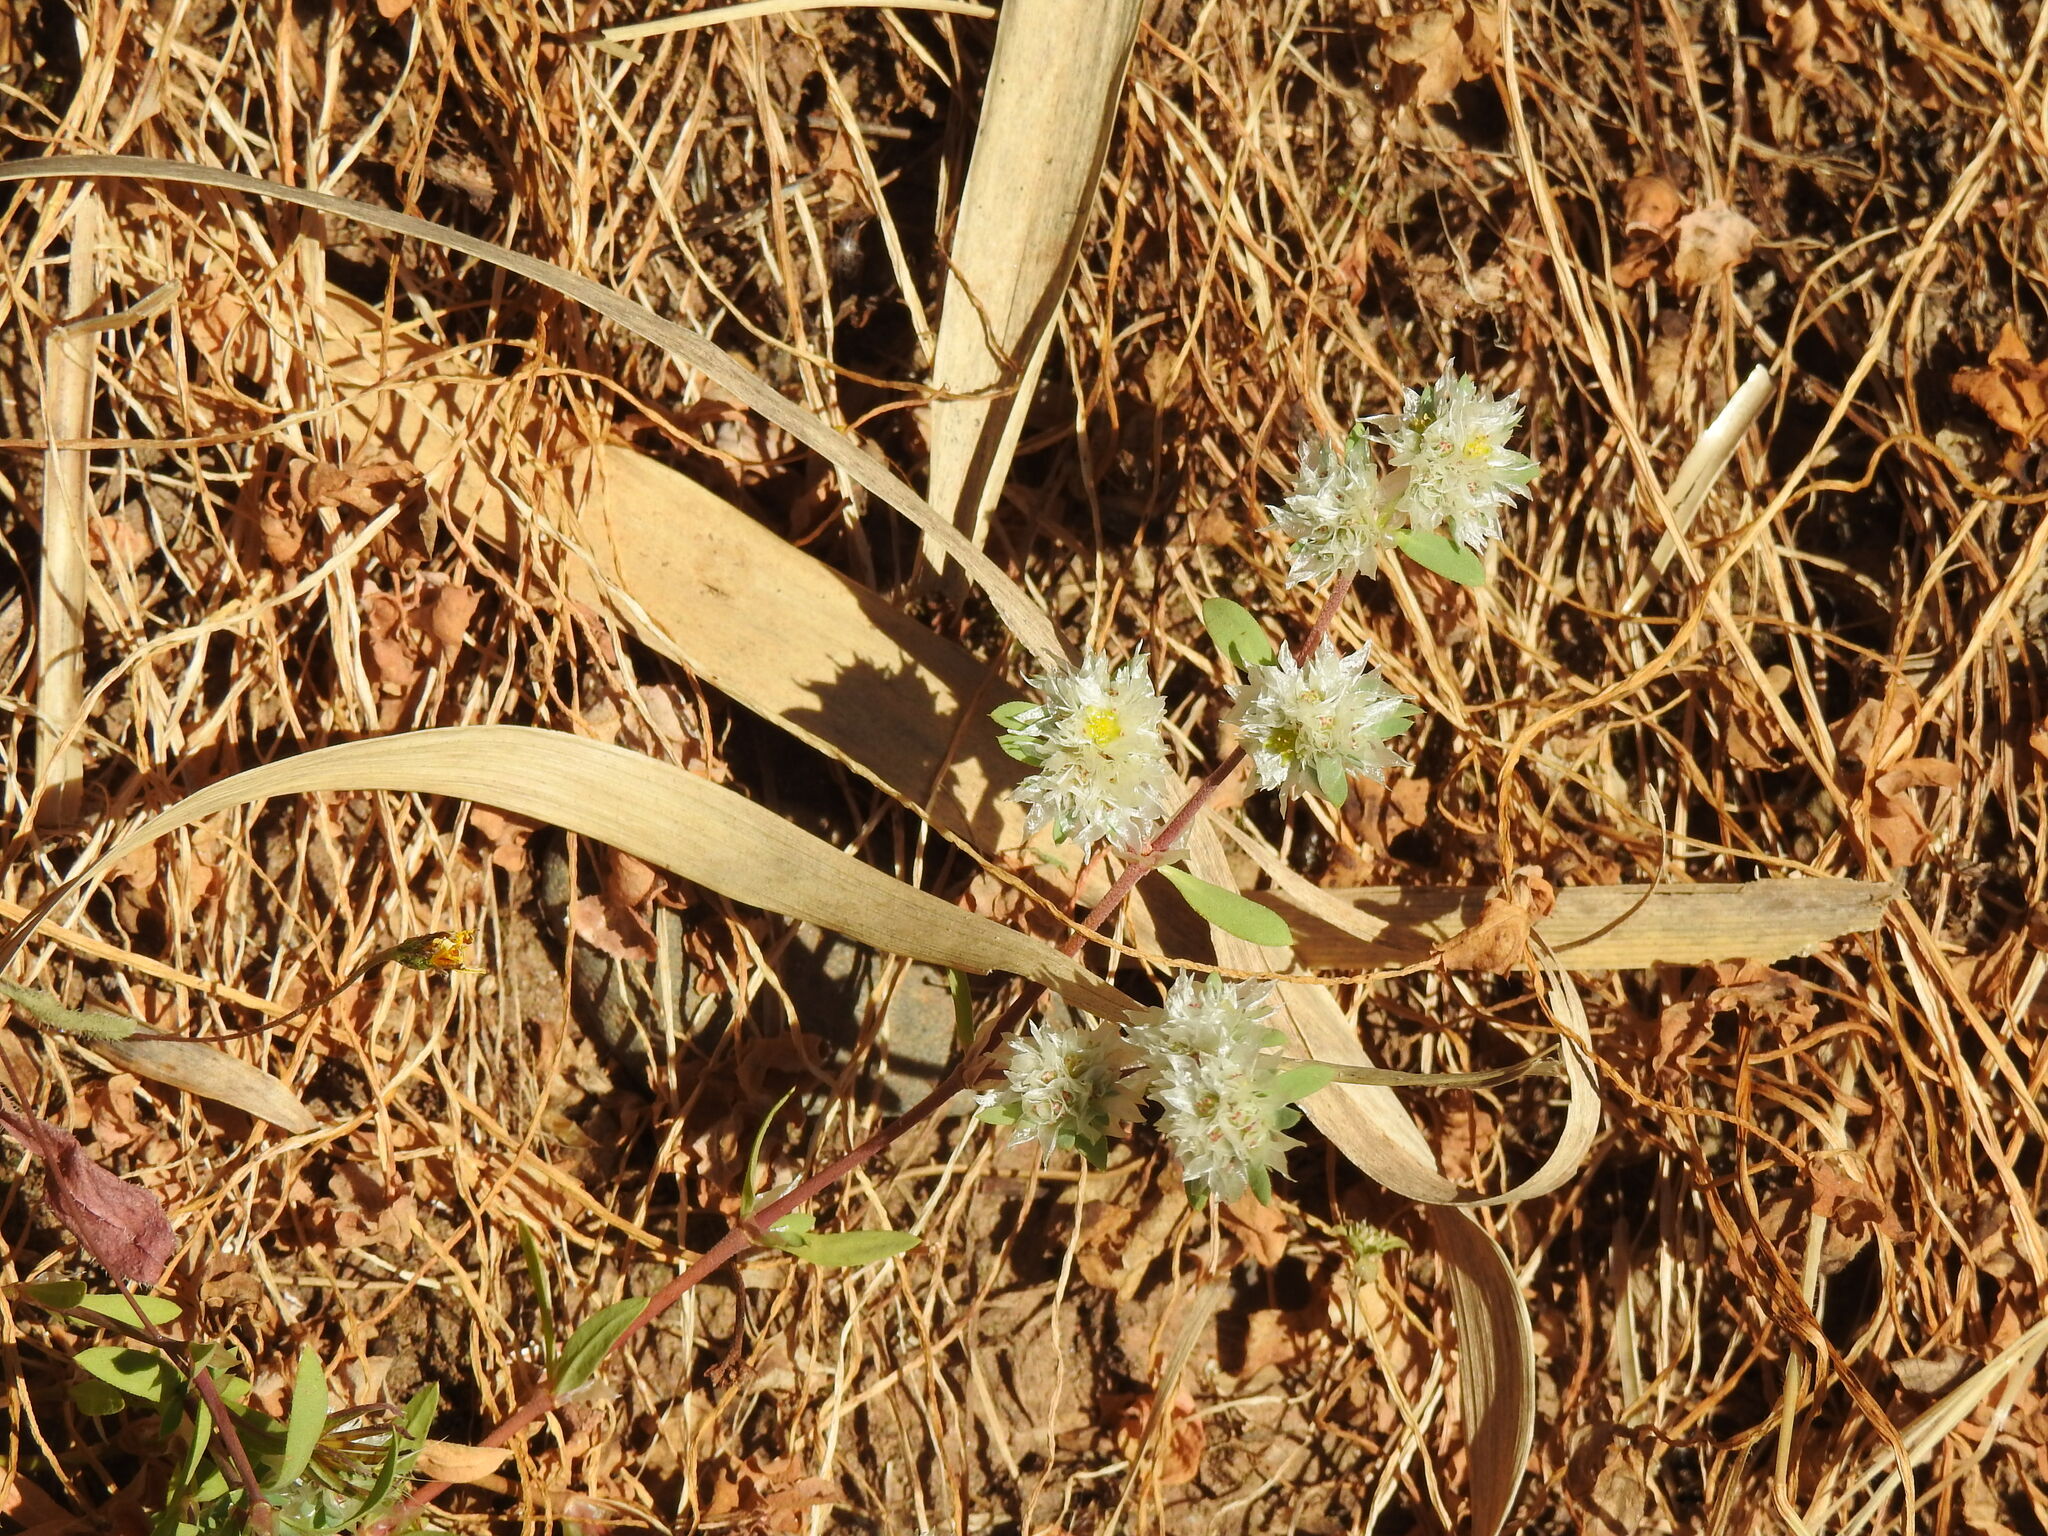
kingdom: Plantae
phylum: Tracheophyta
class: Magnoliopsida
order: Caryophyllales
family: Caryophyllaceae
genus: Paronychia
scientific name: Paronychia argentea
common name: Silver nailroot
